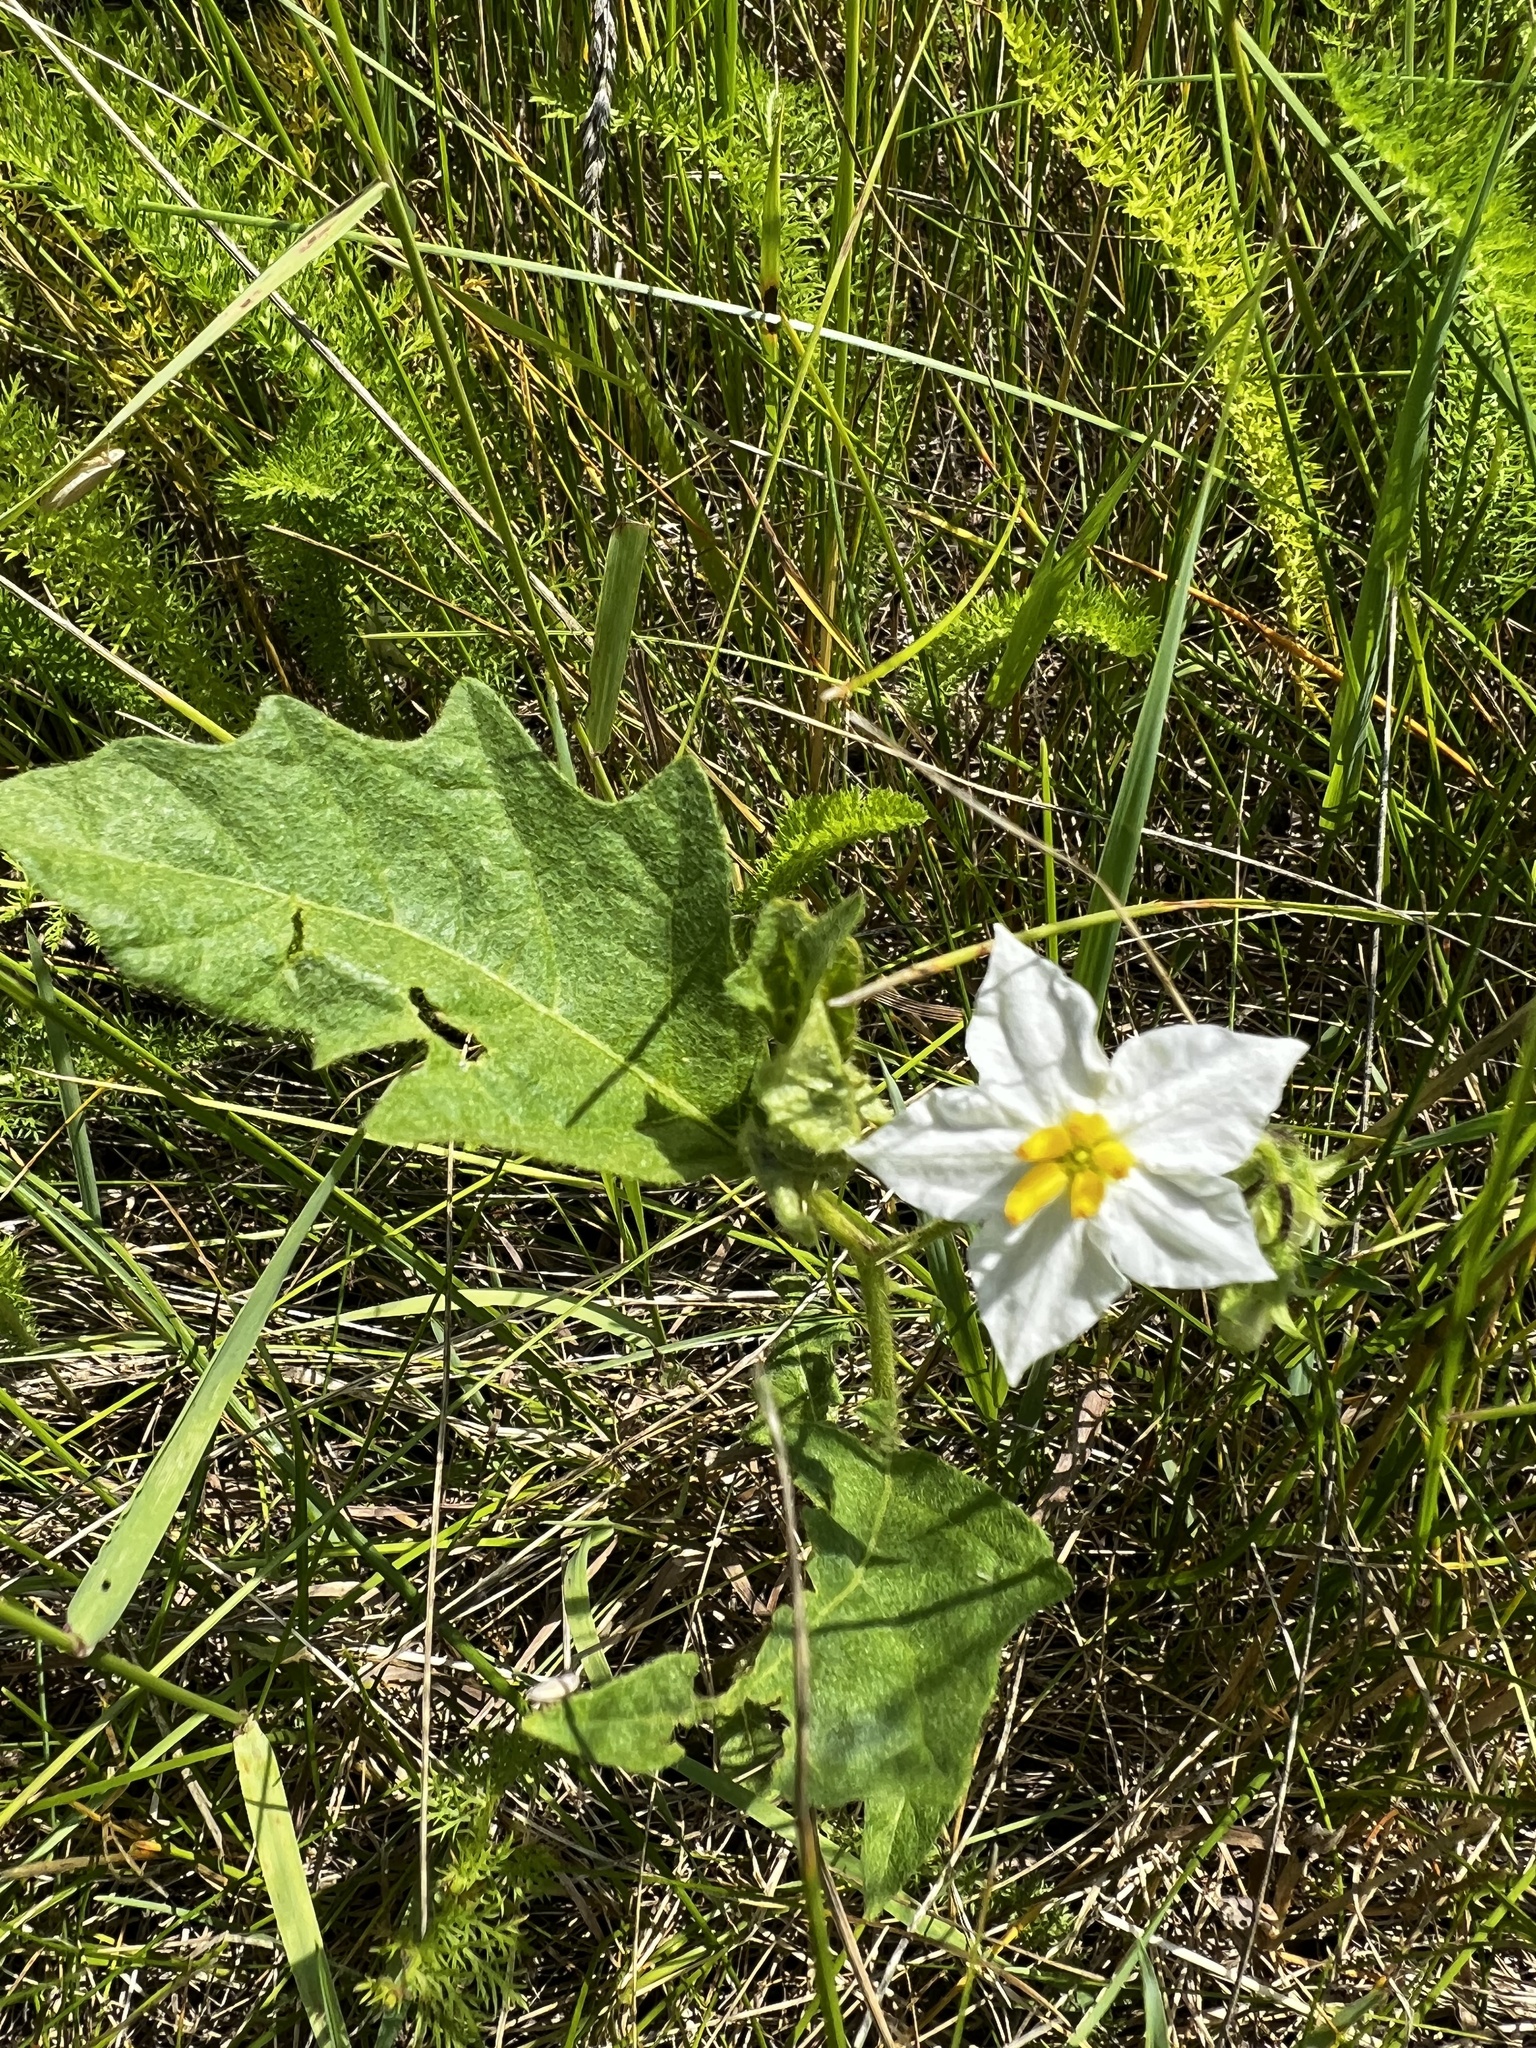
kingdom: Plantae
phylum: Tracheophyta
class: Magnoliopsida
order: Solanales
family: Solanaceae
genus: Solanum
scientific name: Solanum carolinense
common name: Horse-nettle
